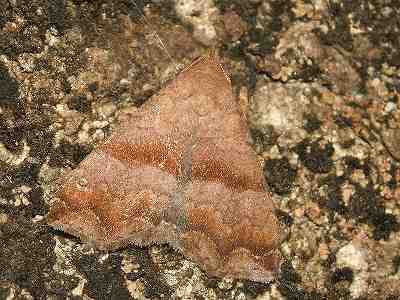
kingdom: Animalia
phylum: Arthropoda
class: Insecta
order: Lepidoptera
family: Erebidae
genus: Polypogon
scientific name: Polypogon Hipoepa fractalis
